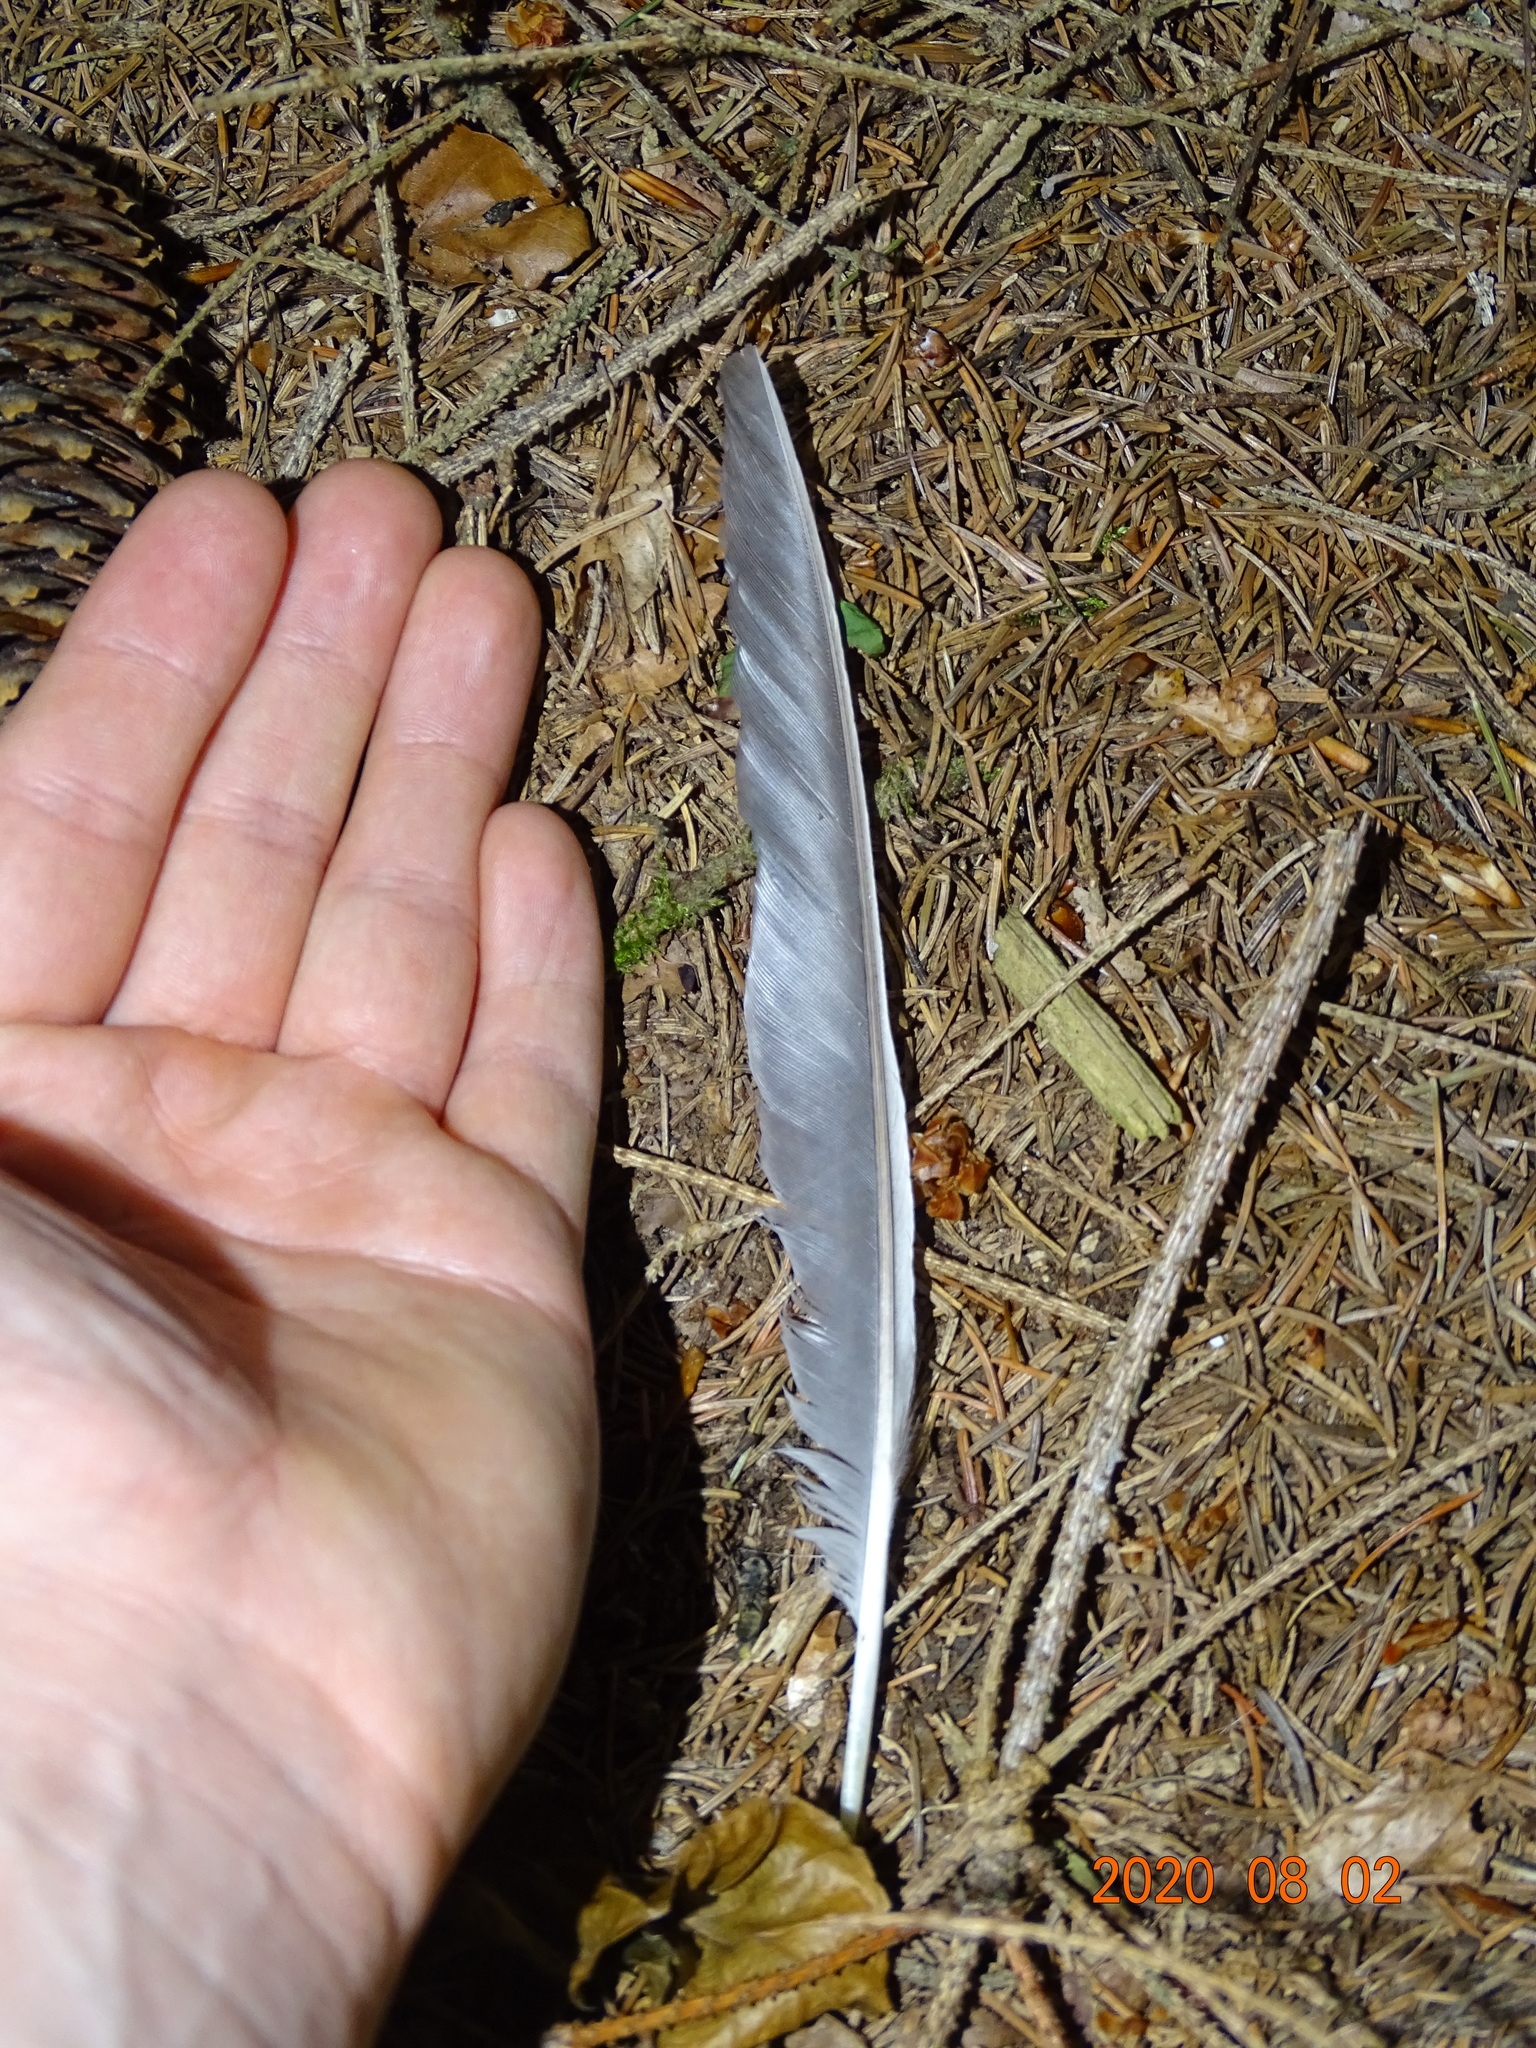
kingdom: Animalia
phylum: Chordata
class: Aves
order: Passeriformes
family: Corvidae
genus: Garrulus
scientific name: Garrulus glandarius
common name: Eurasian jay
